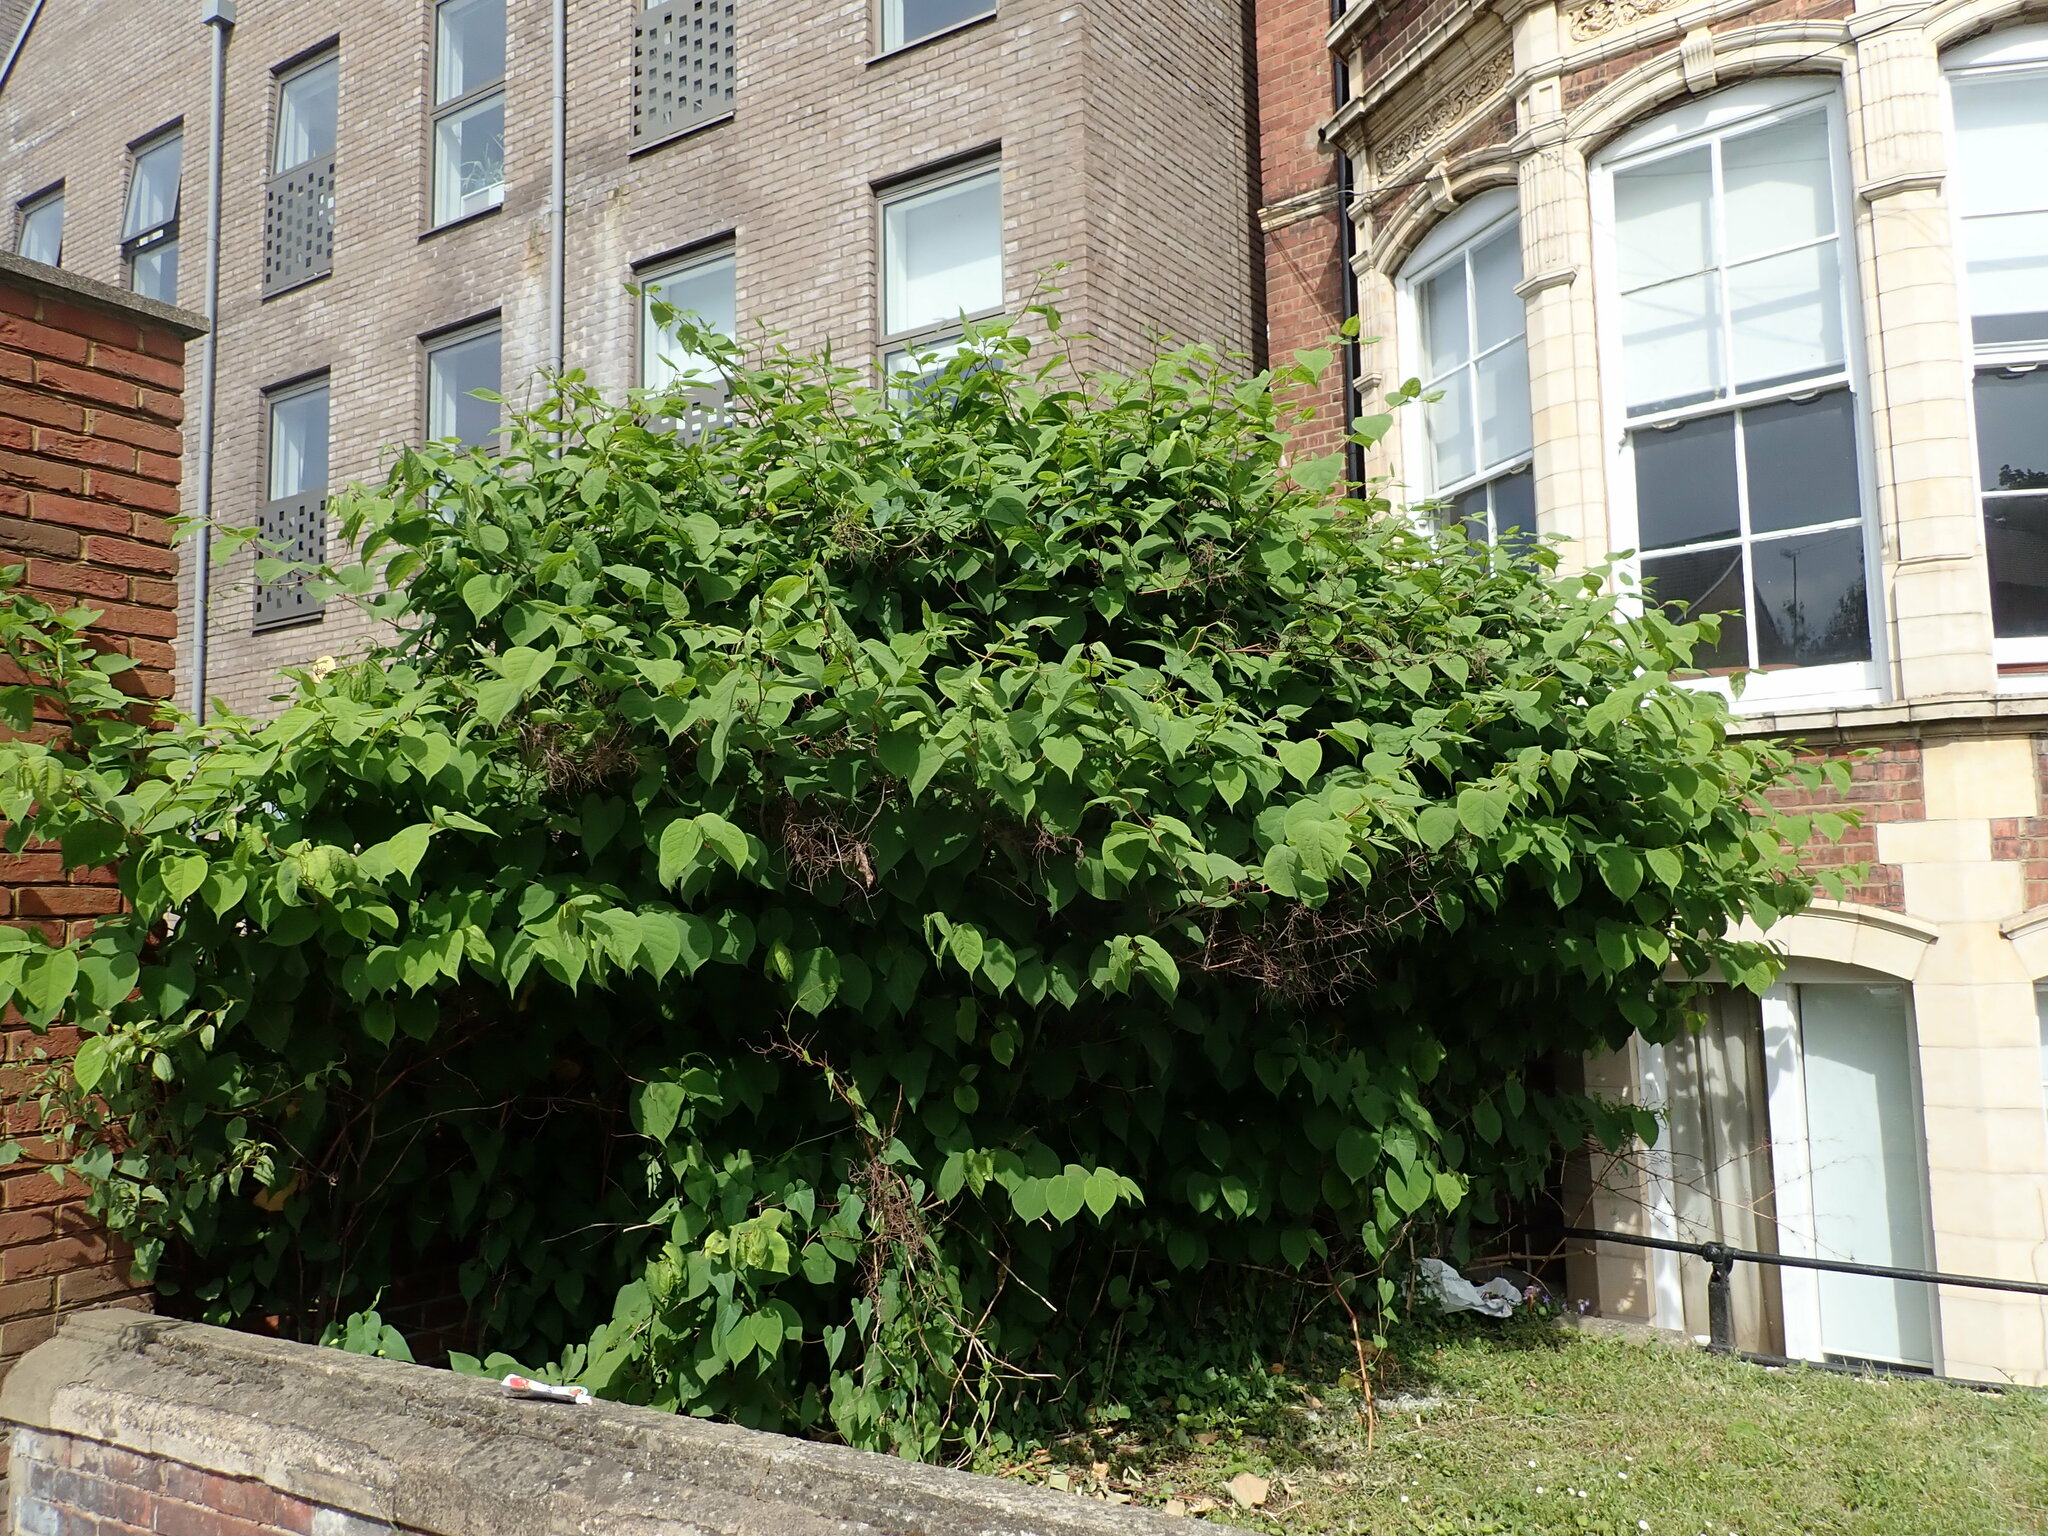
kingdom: Plantae
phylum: Tracheophyta
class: Magnoliopsida
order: Caryophyllales
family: Polygonaceae
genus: Reynoutria
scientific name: Reynoutria japonica
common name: Japanese knotweed
